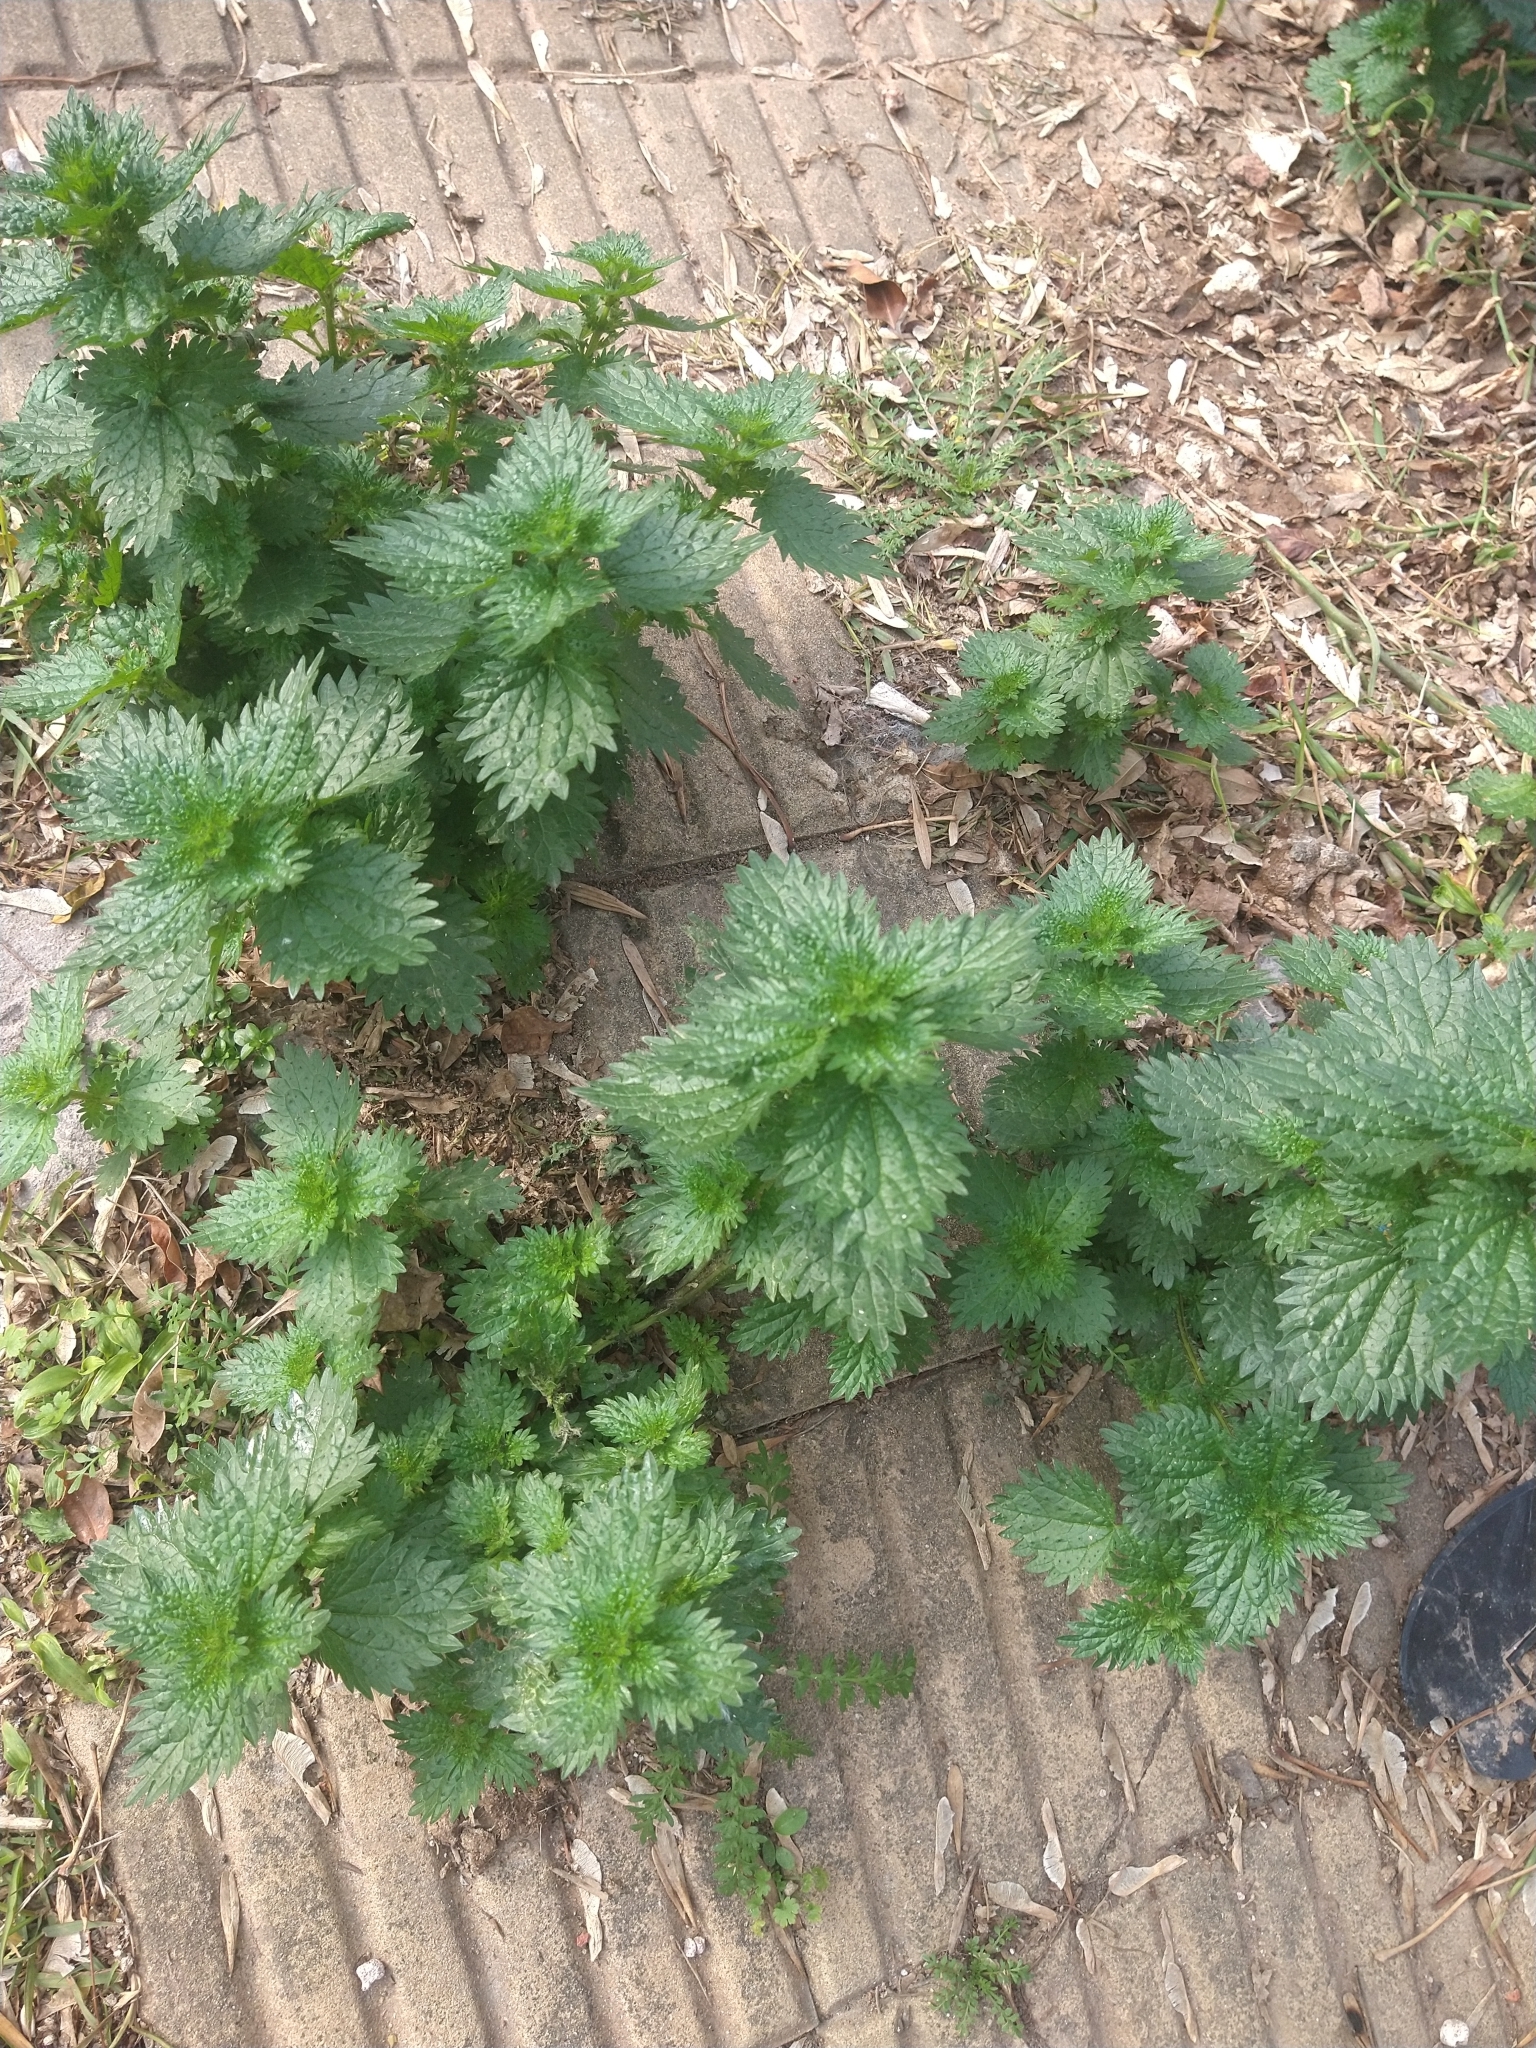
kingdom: Plantae
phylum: Tracheophyta
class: Magnoliopsida
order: Rosales
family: Urticaceae
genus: Urtica
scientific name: Urtica urens
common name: Dwarf nettle
